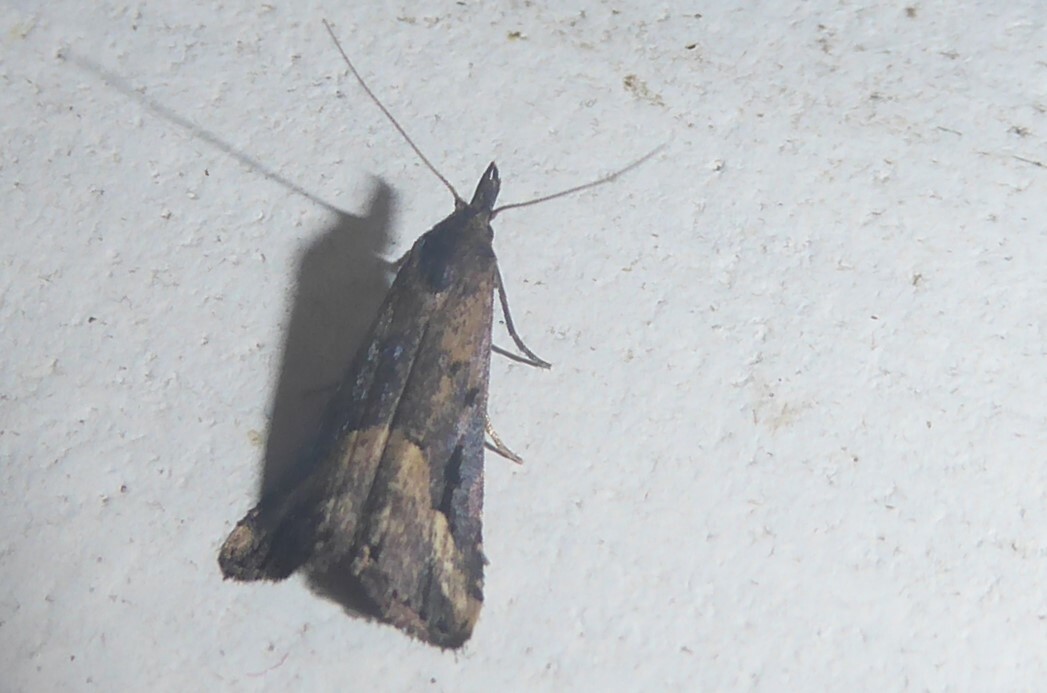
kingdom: Animalia
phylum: Arthropoda
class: Insecta
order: Lepidoptera
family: Erebidae
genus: Schrankia
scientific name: Schrankia capnophanes
